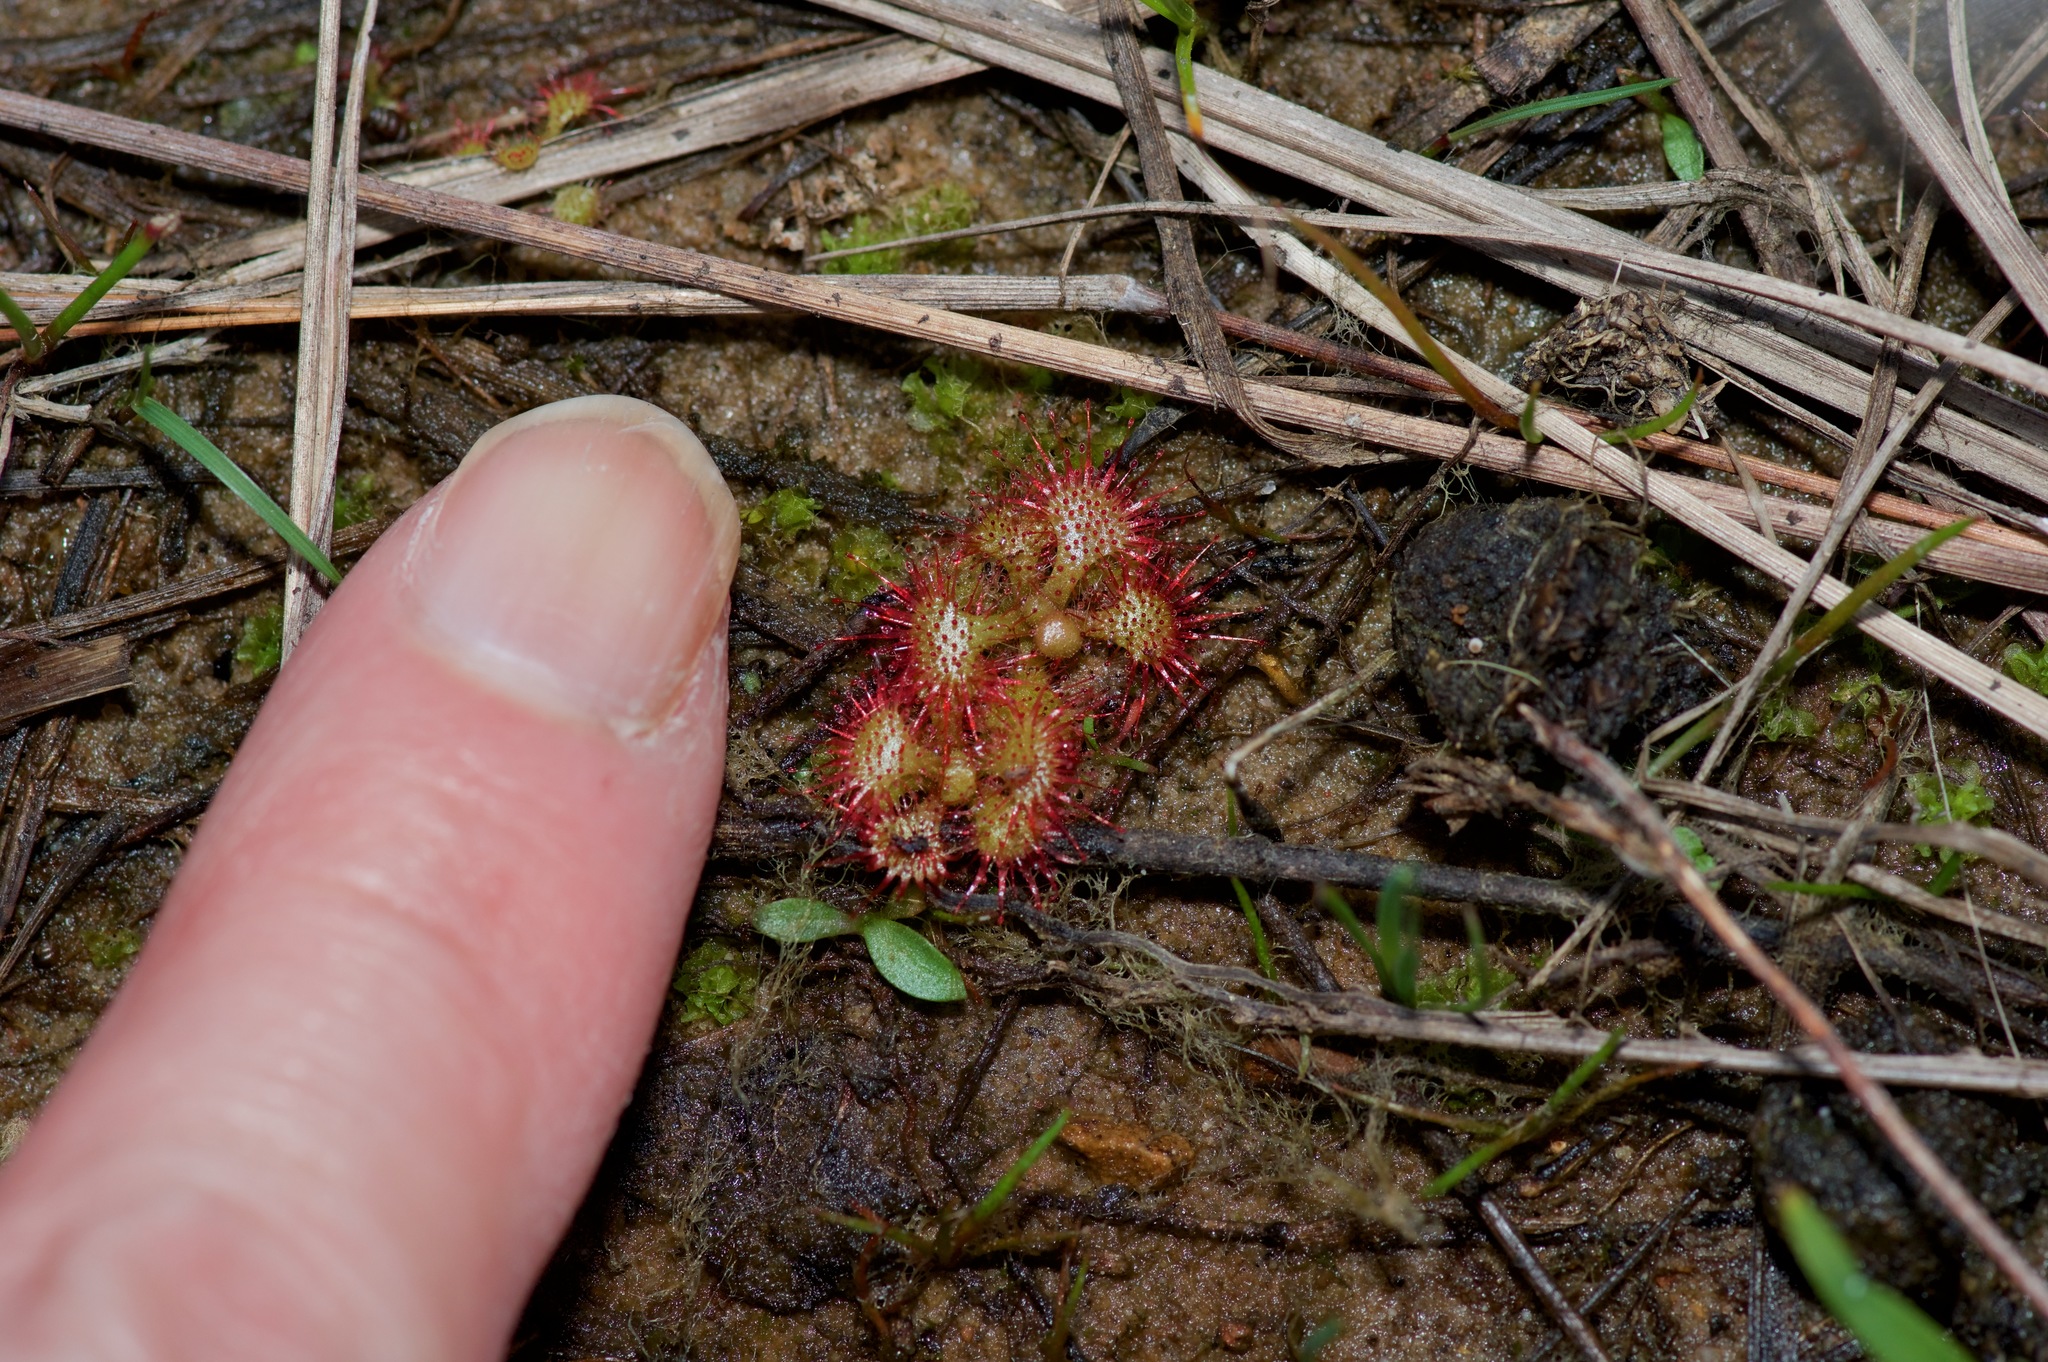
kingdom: Plantae
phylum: Tracheophyta
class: Magnoliopsida
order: Caryophyllales
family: Droseraceae
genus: Drosera
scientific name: Drosera brevifolia
